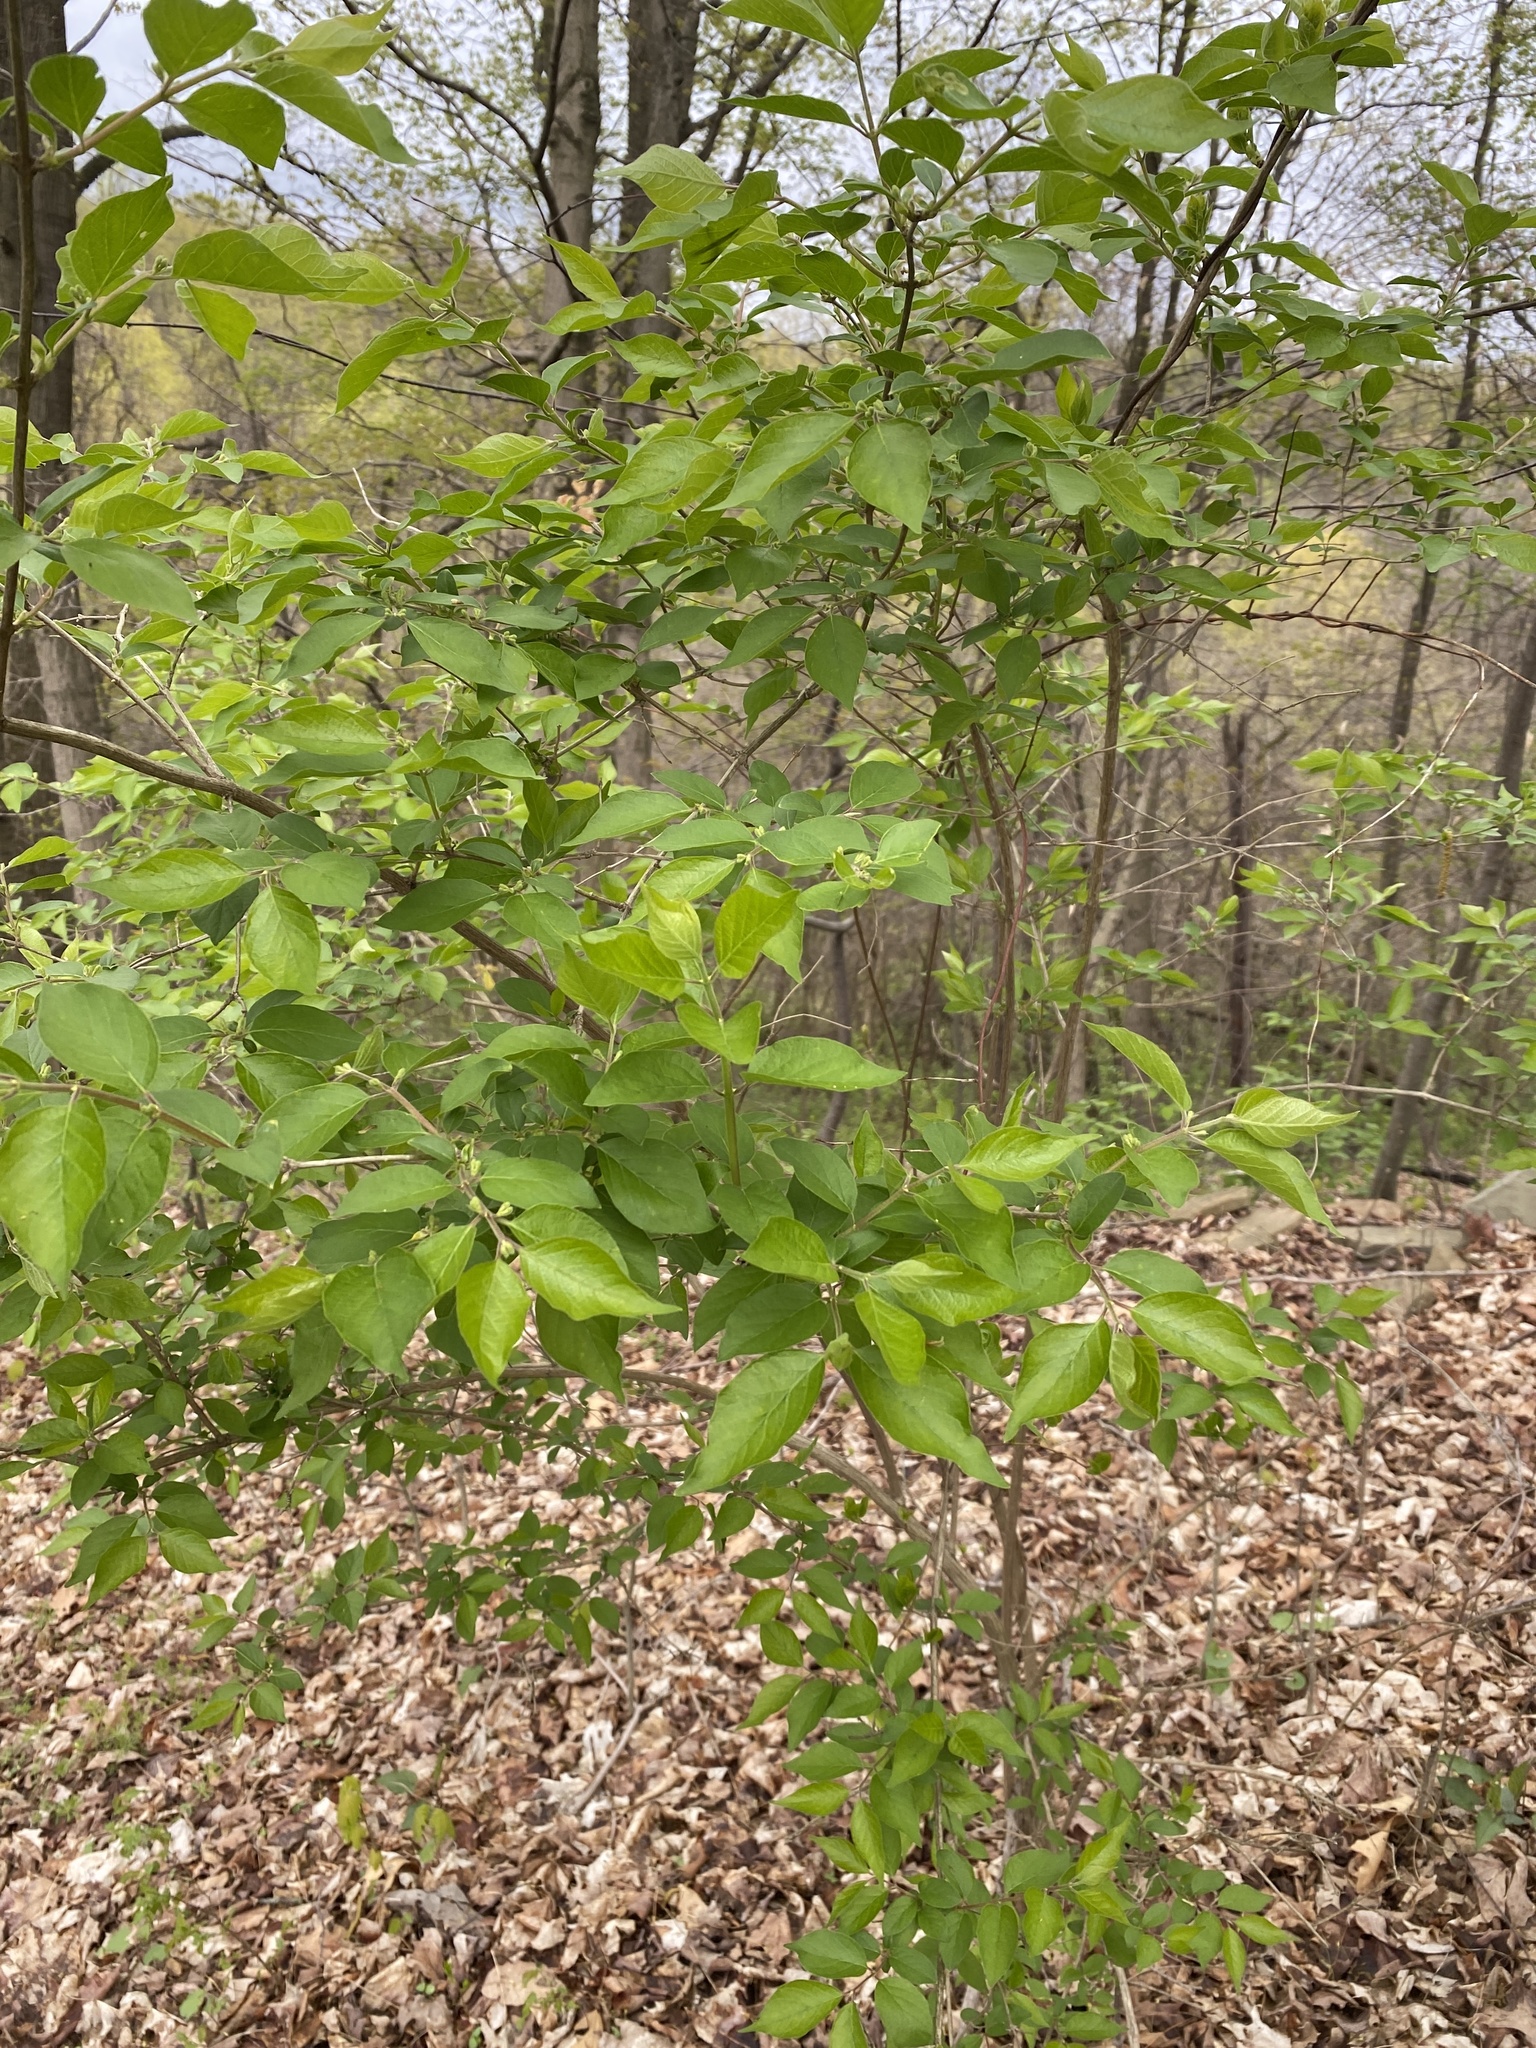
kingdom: Plantae
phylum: Tracheophyta
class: Magnoliopsida
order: Dipsacales
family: Caprifoliaceae
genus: Lonicera
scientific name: Lonicera maackii
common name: Amur honeysuckle
